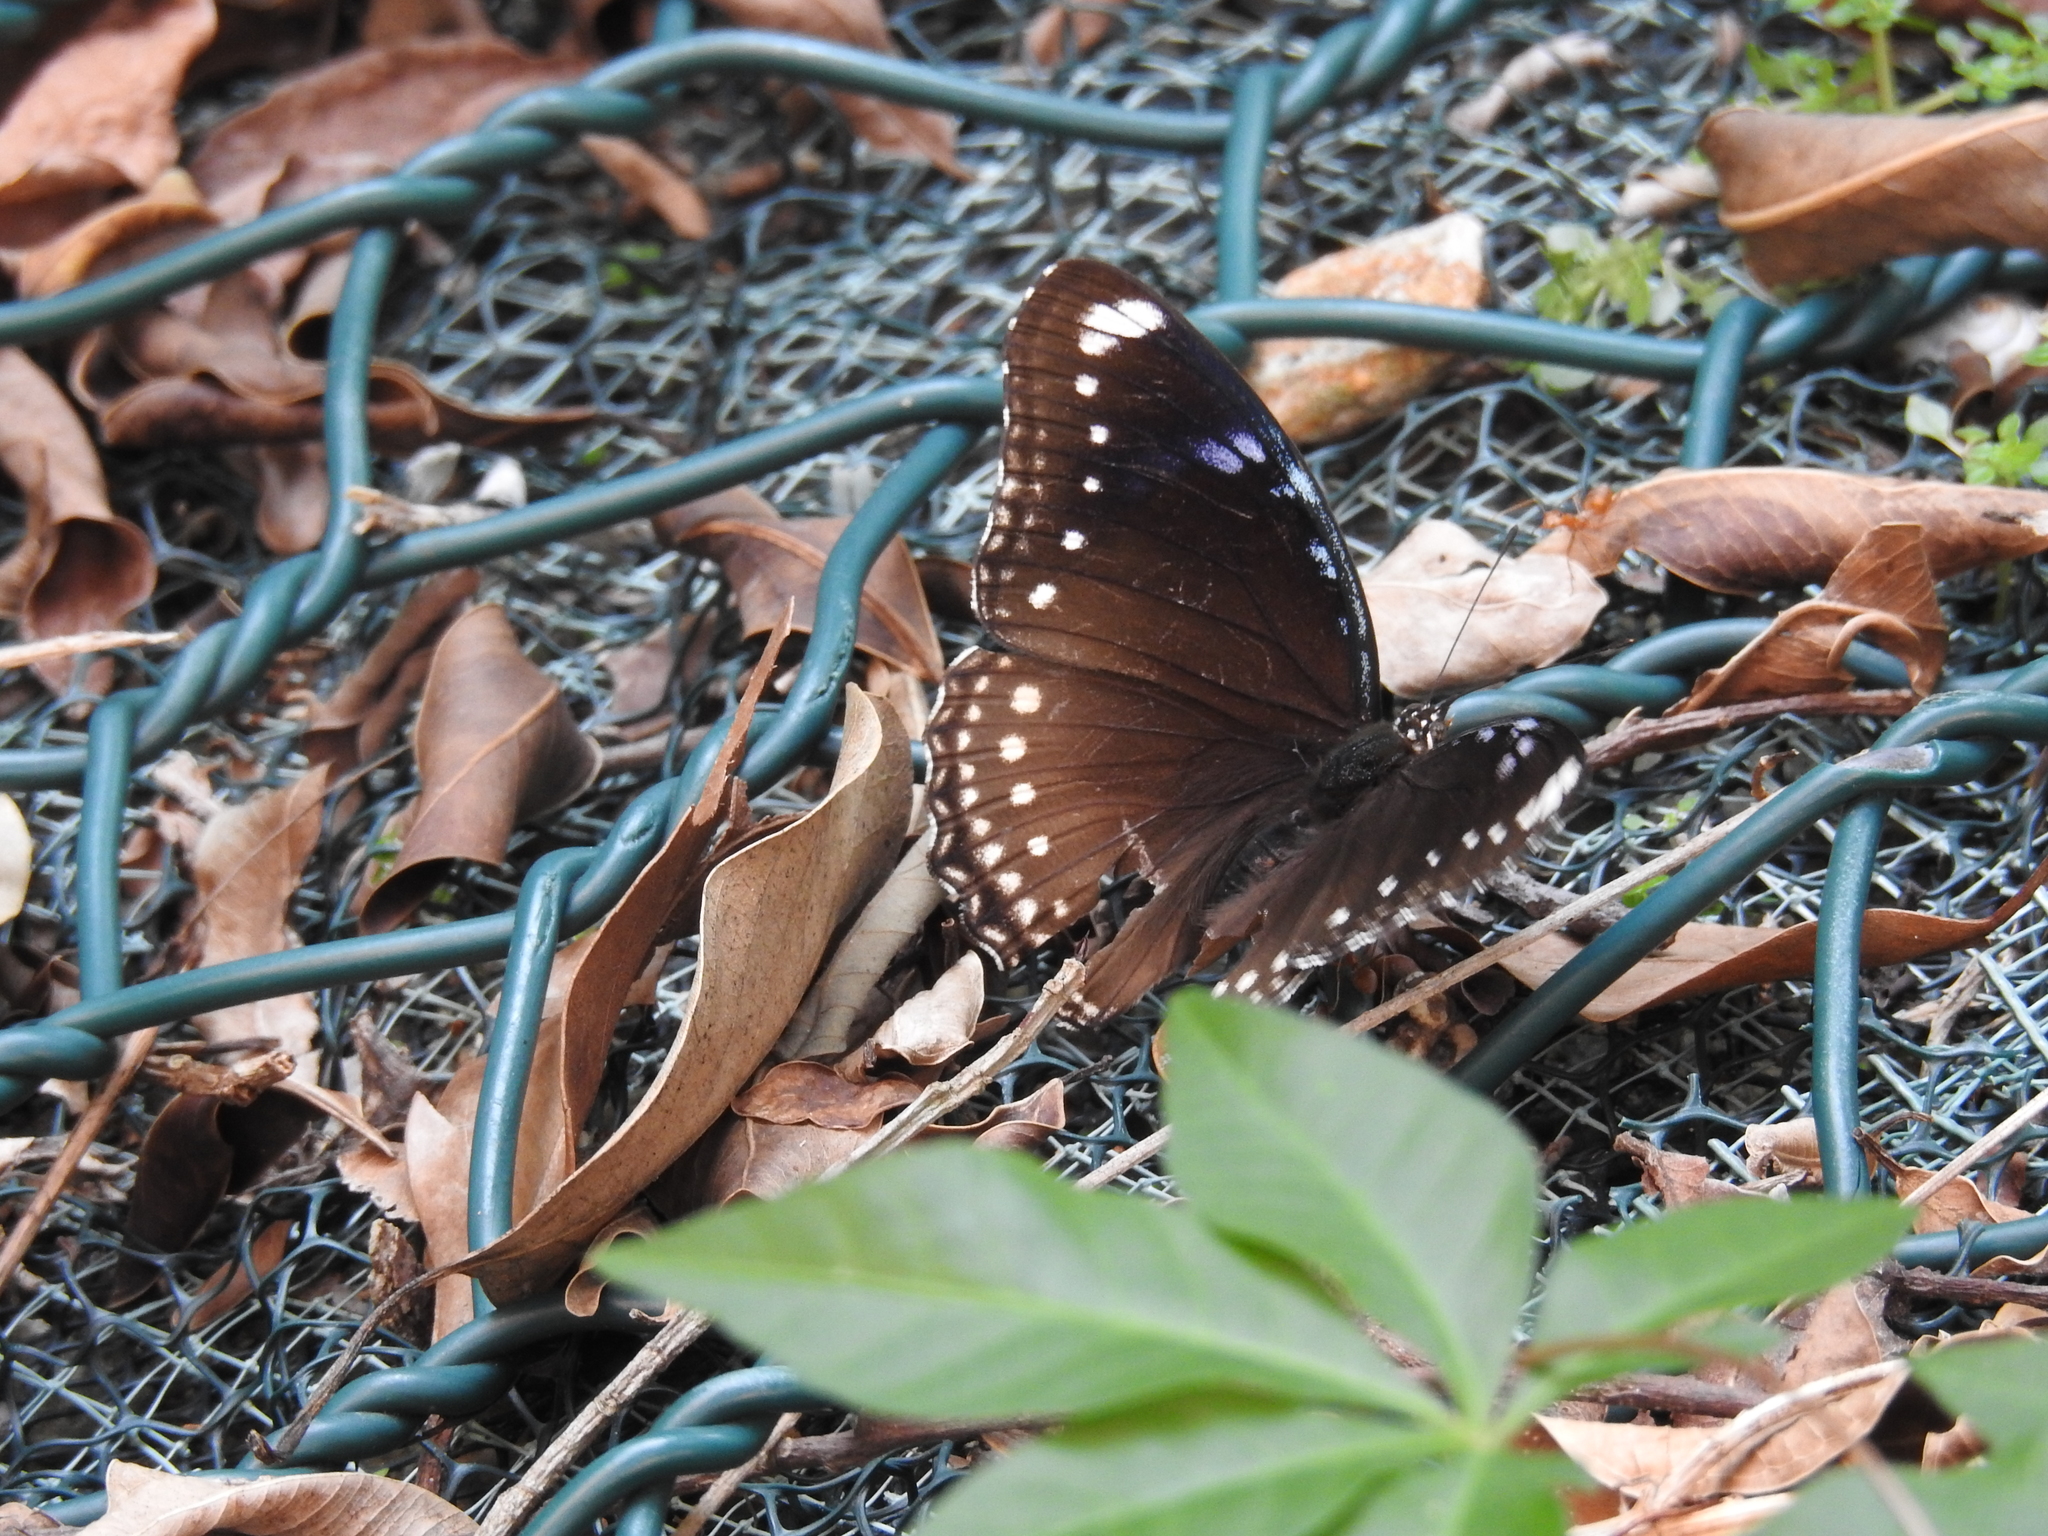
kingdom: Animalia
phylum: Arthropoda
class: Insecta
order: Lepidoptera
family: Nymphalidae
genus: Hypolimnas
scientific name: Hypolimnas bolina
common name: Great eggfly
